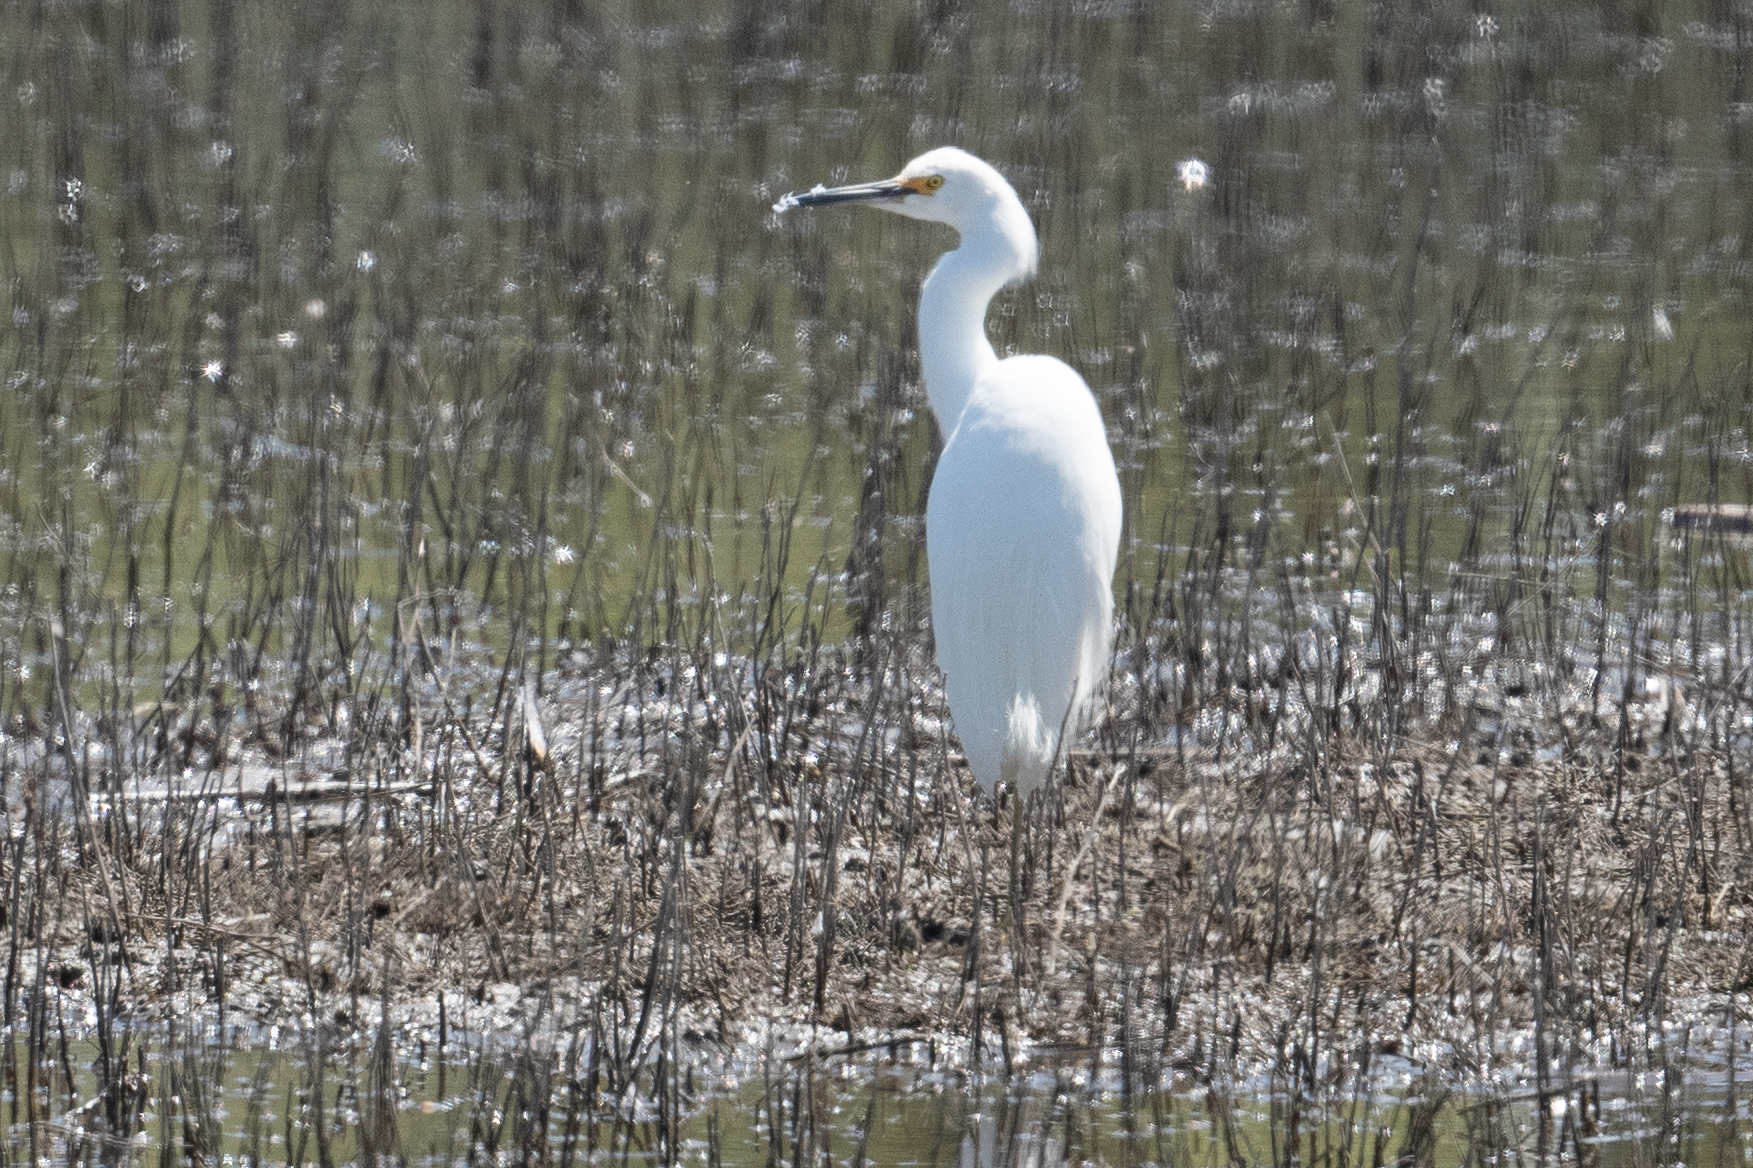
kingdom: Animalia
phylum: Chordata
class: Aves
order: Pelecaniformes
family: Ardeidae
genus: Egretta
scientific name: Egretta thula
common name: Snowy egret
